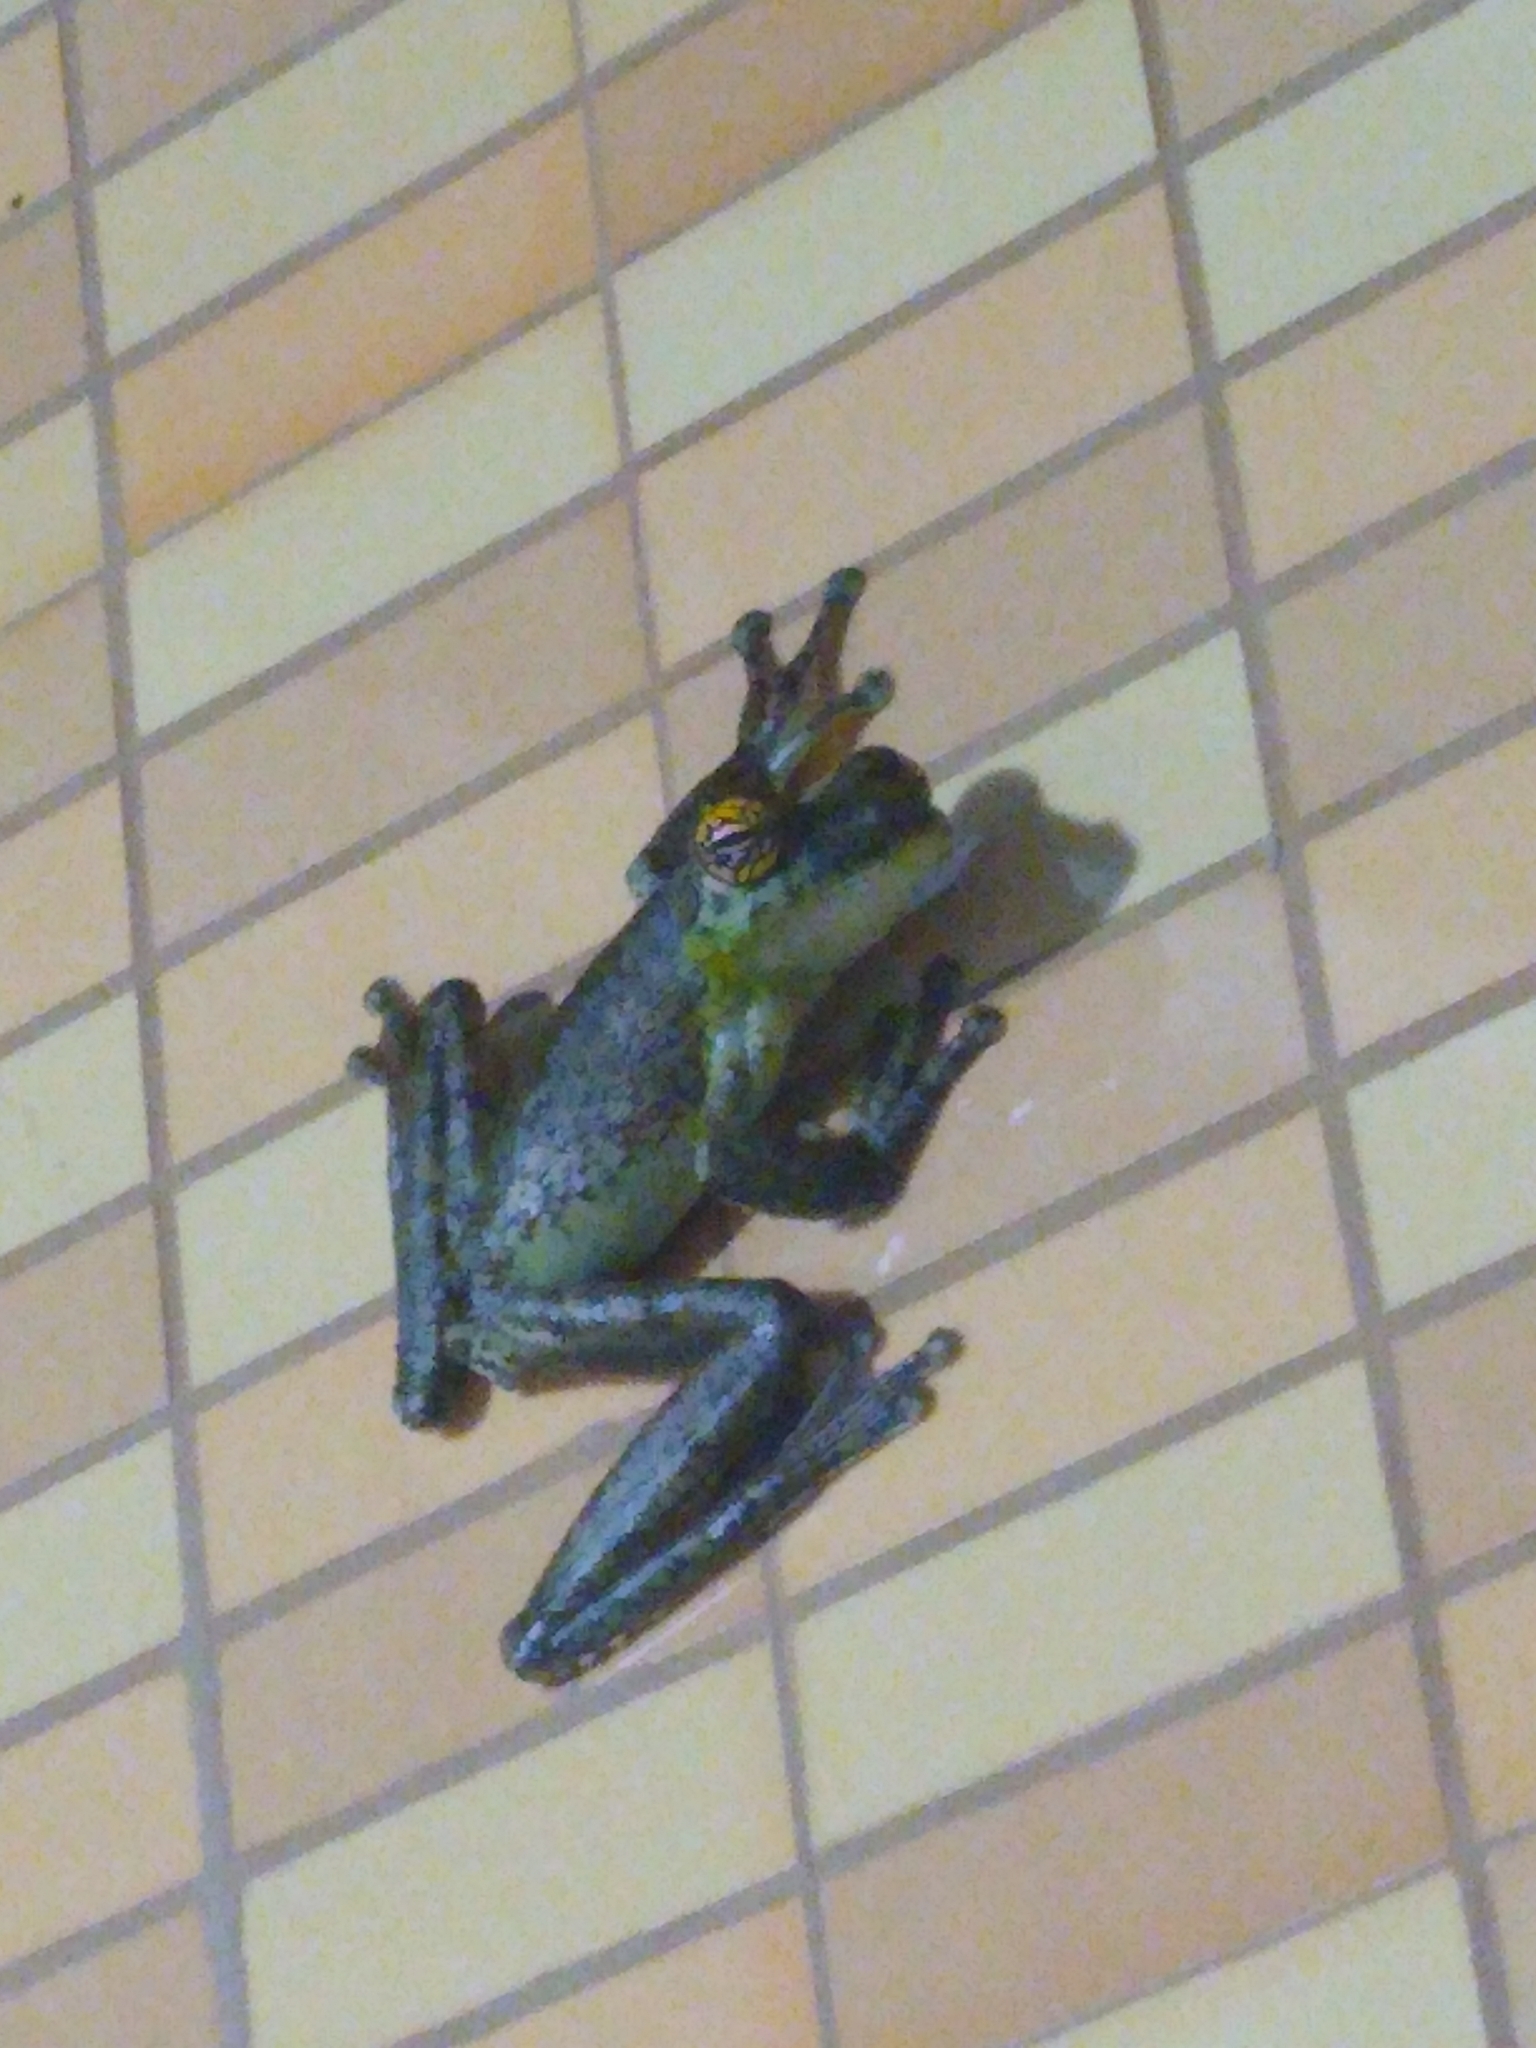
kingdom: Animalia
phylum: Chordata
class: Amphibia
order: Anura
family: Hylidae
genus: Itapotihyla
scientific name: Itapotihyla langsdorffii
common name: Ocellated treefrog
